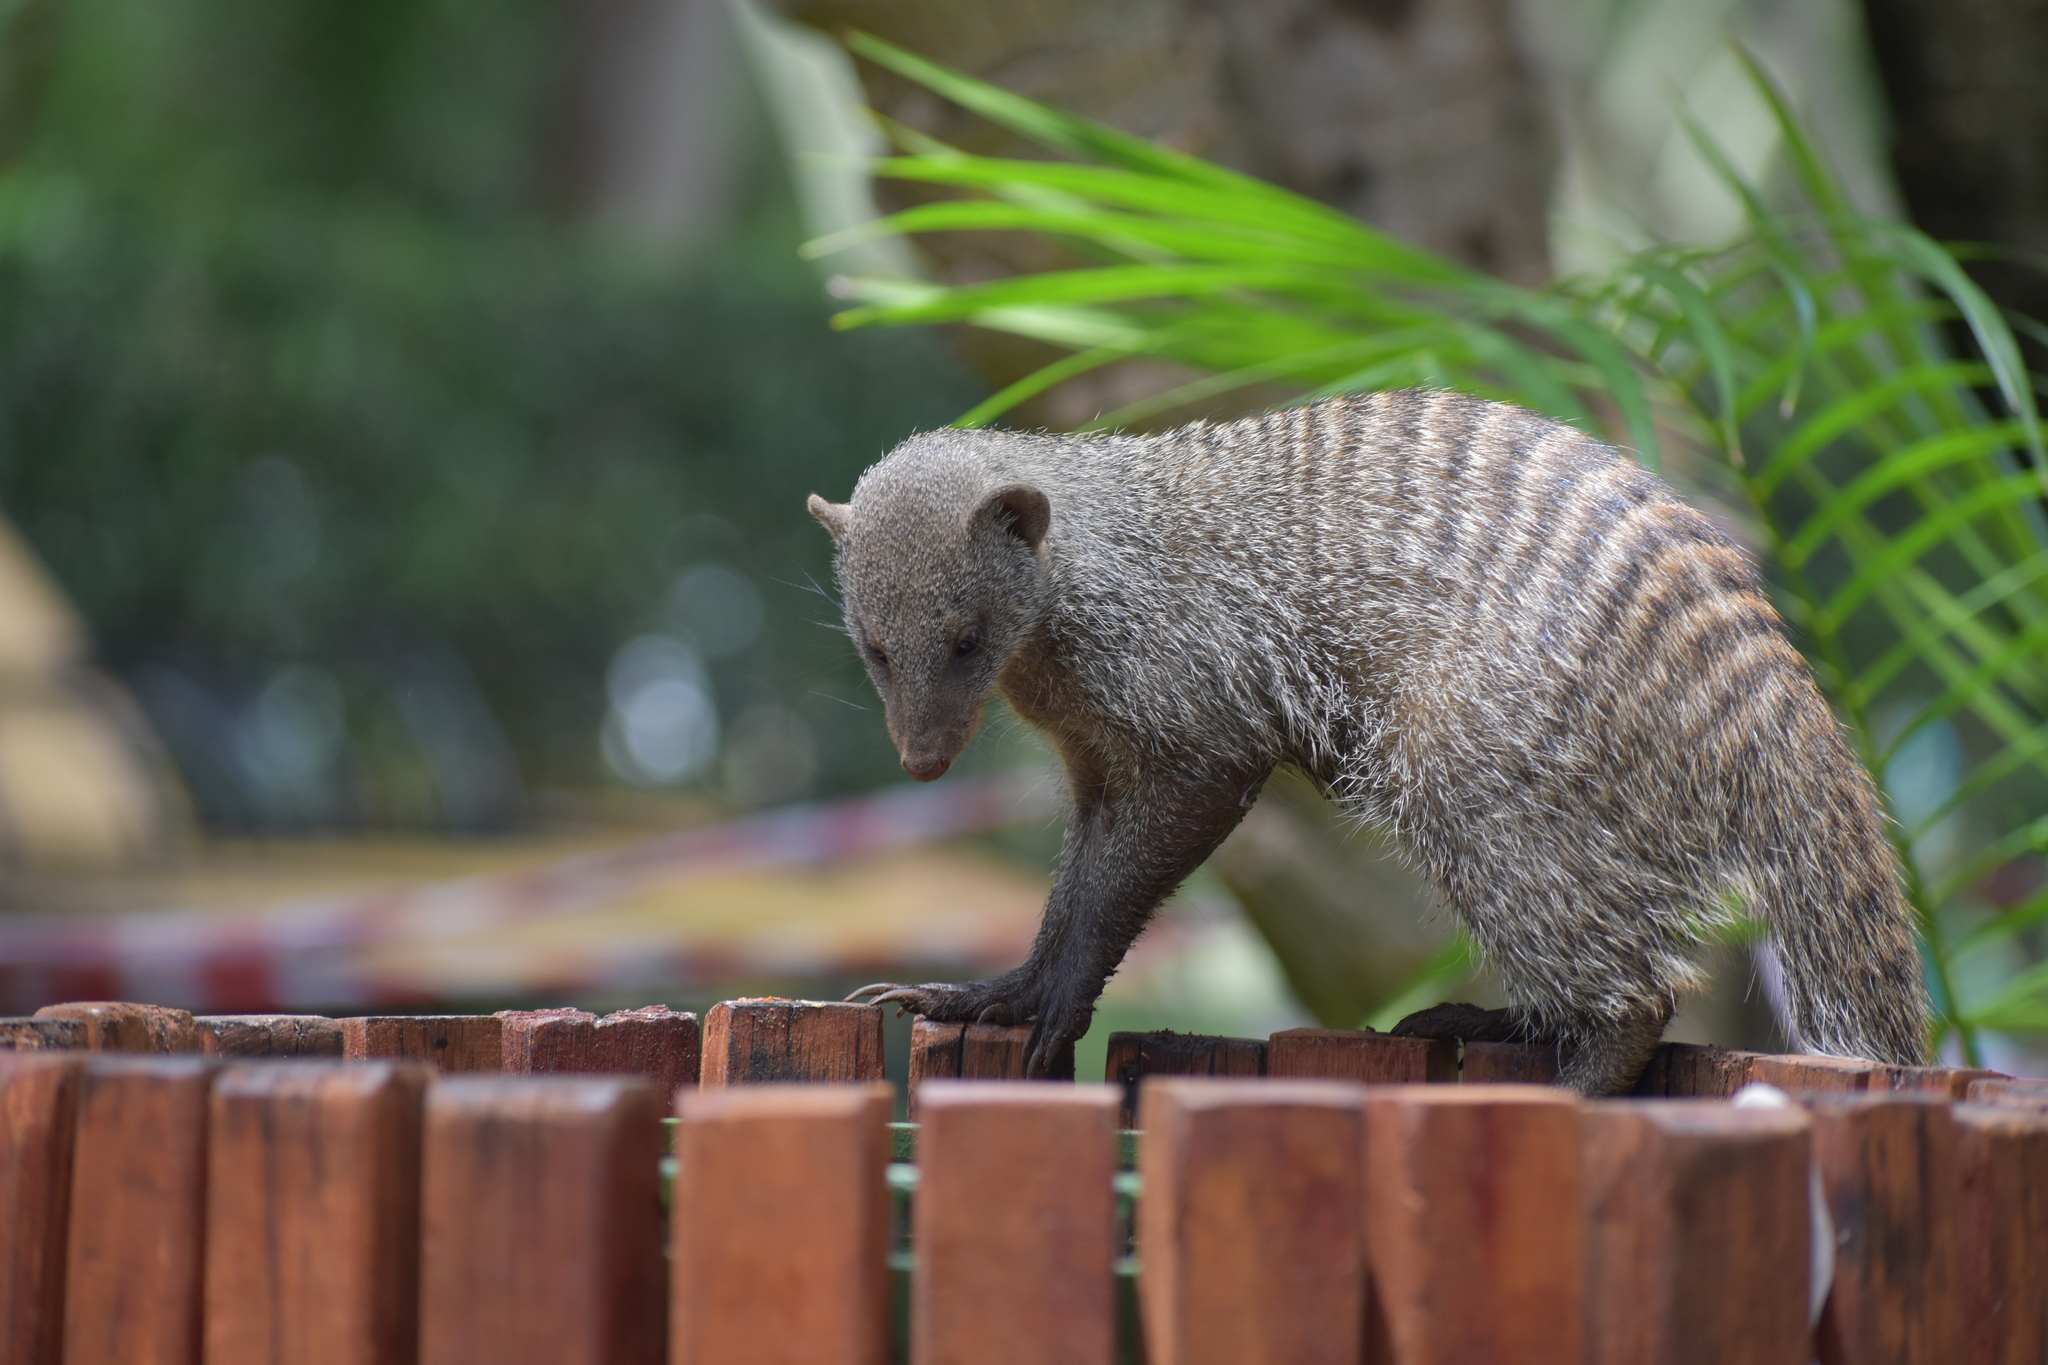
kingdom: Animalia
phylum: Chordata
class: Mammalia
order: Carnivora
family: Herpestidae
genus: Mungos
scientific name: Mungos mungo
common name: Banded mongoose
